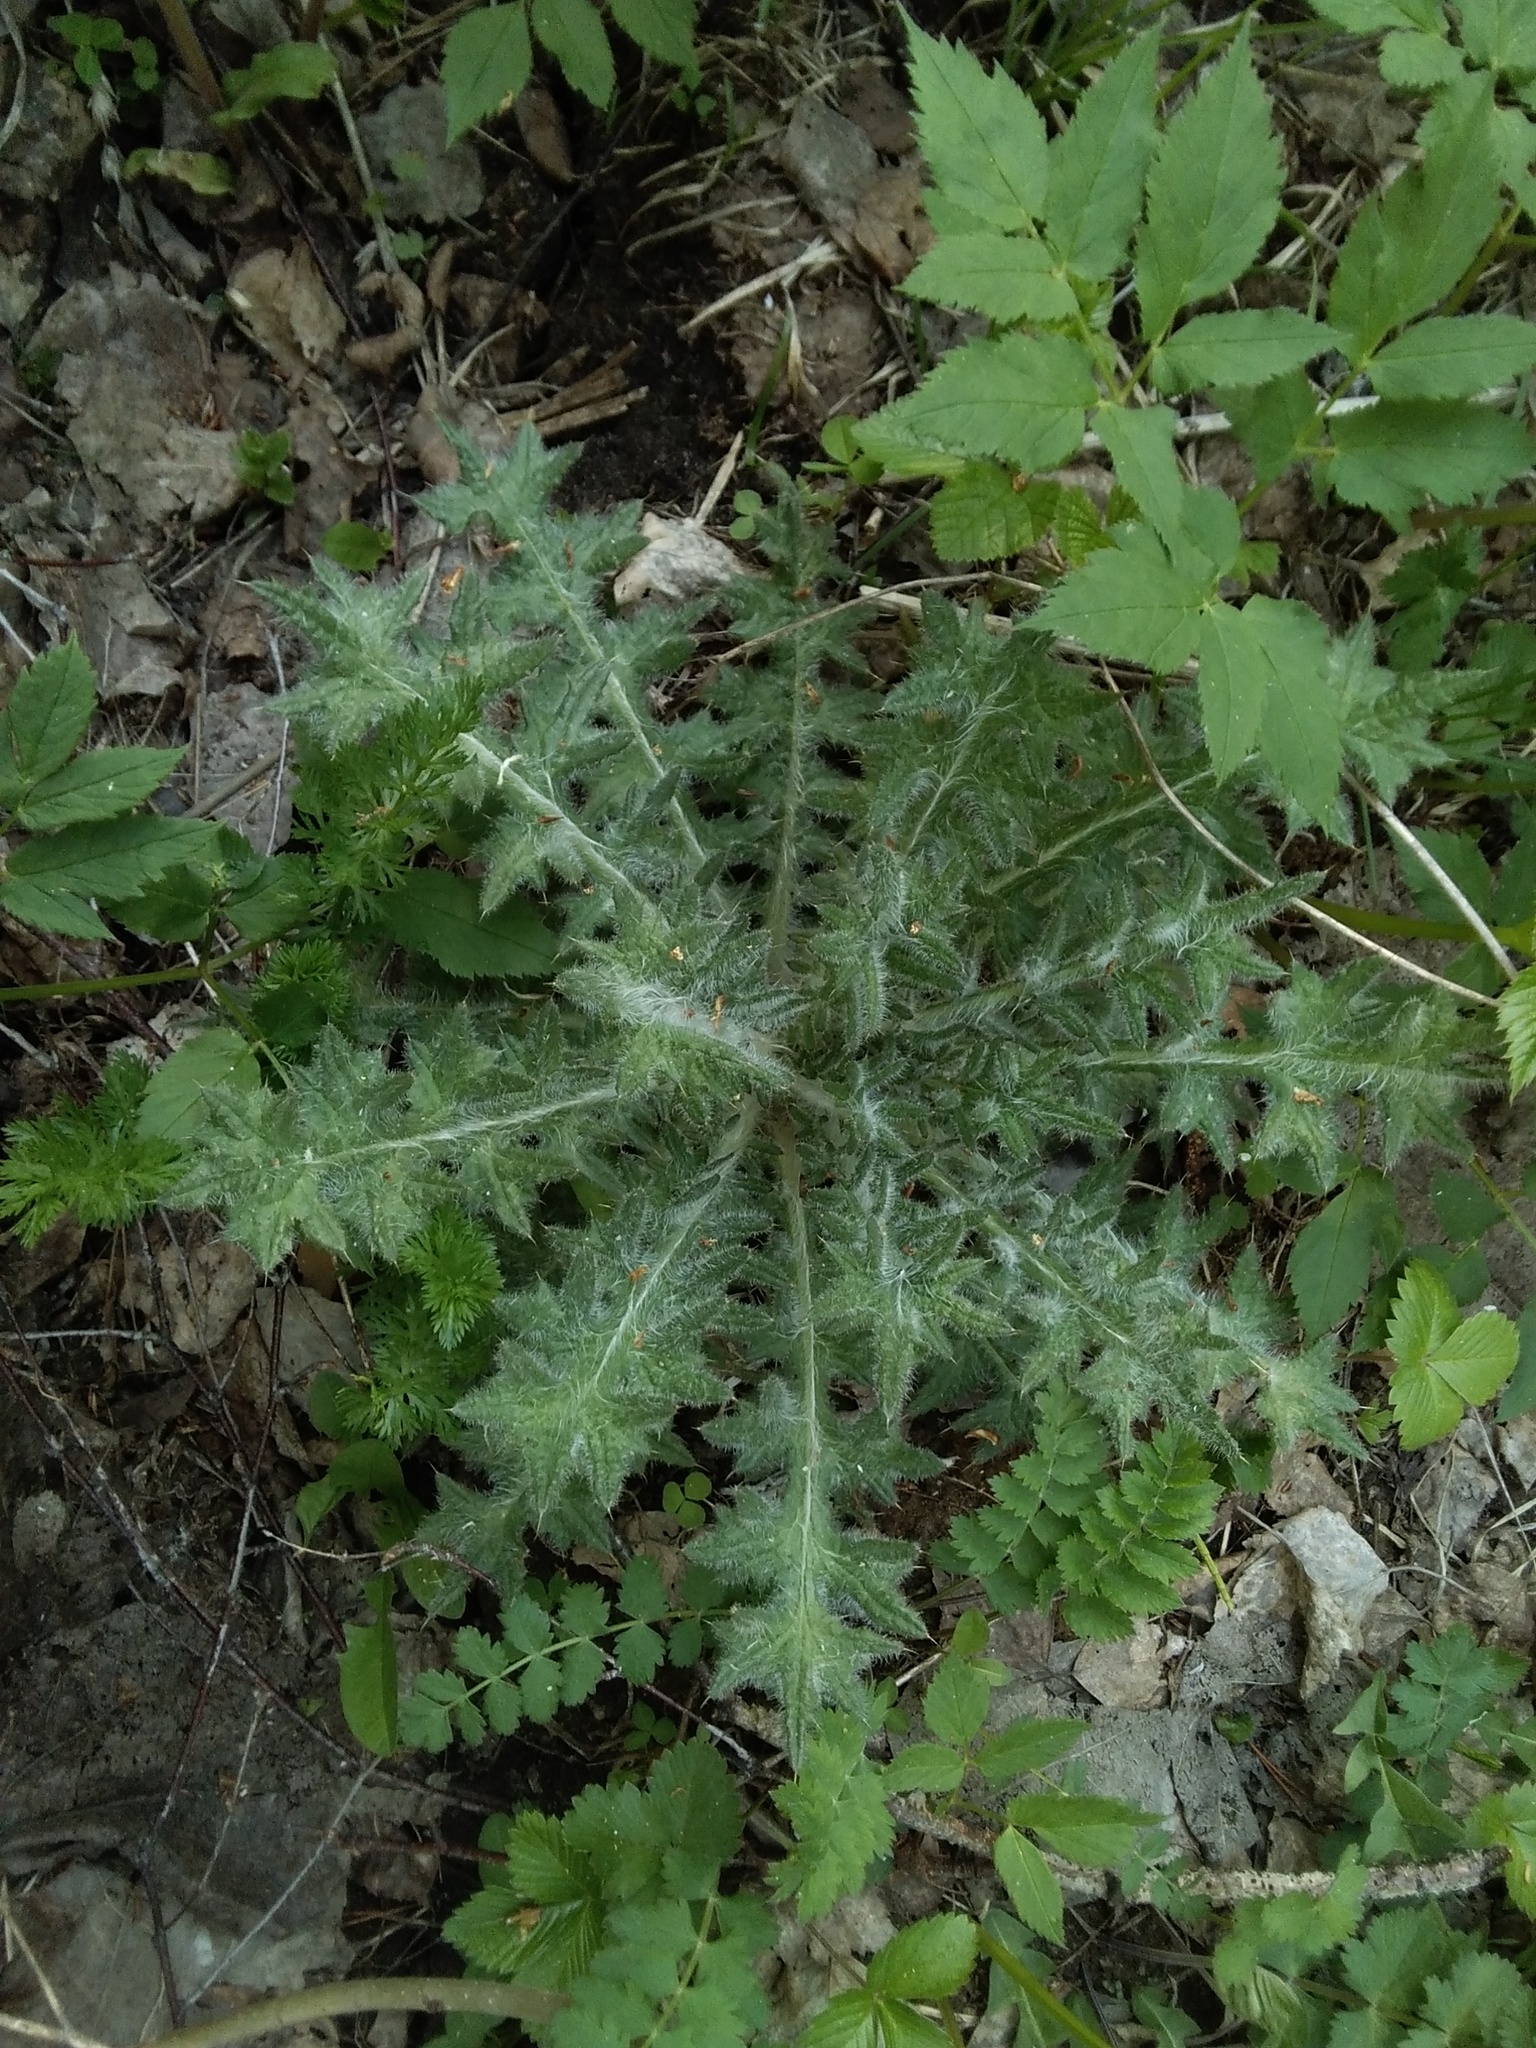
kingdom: Plantae
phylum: Tracheophyta
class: Magnoliopsida
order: Asterales
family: Asteraceae
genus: Cirsium
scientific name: Cirsium vulgare
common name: Bull thistle
